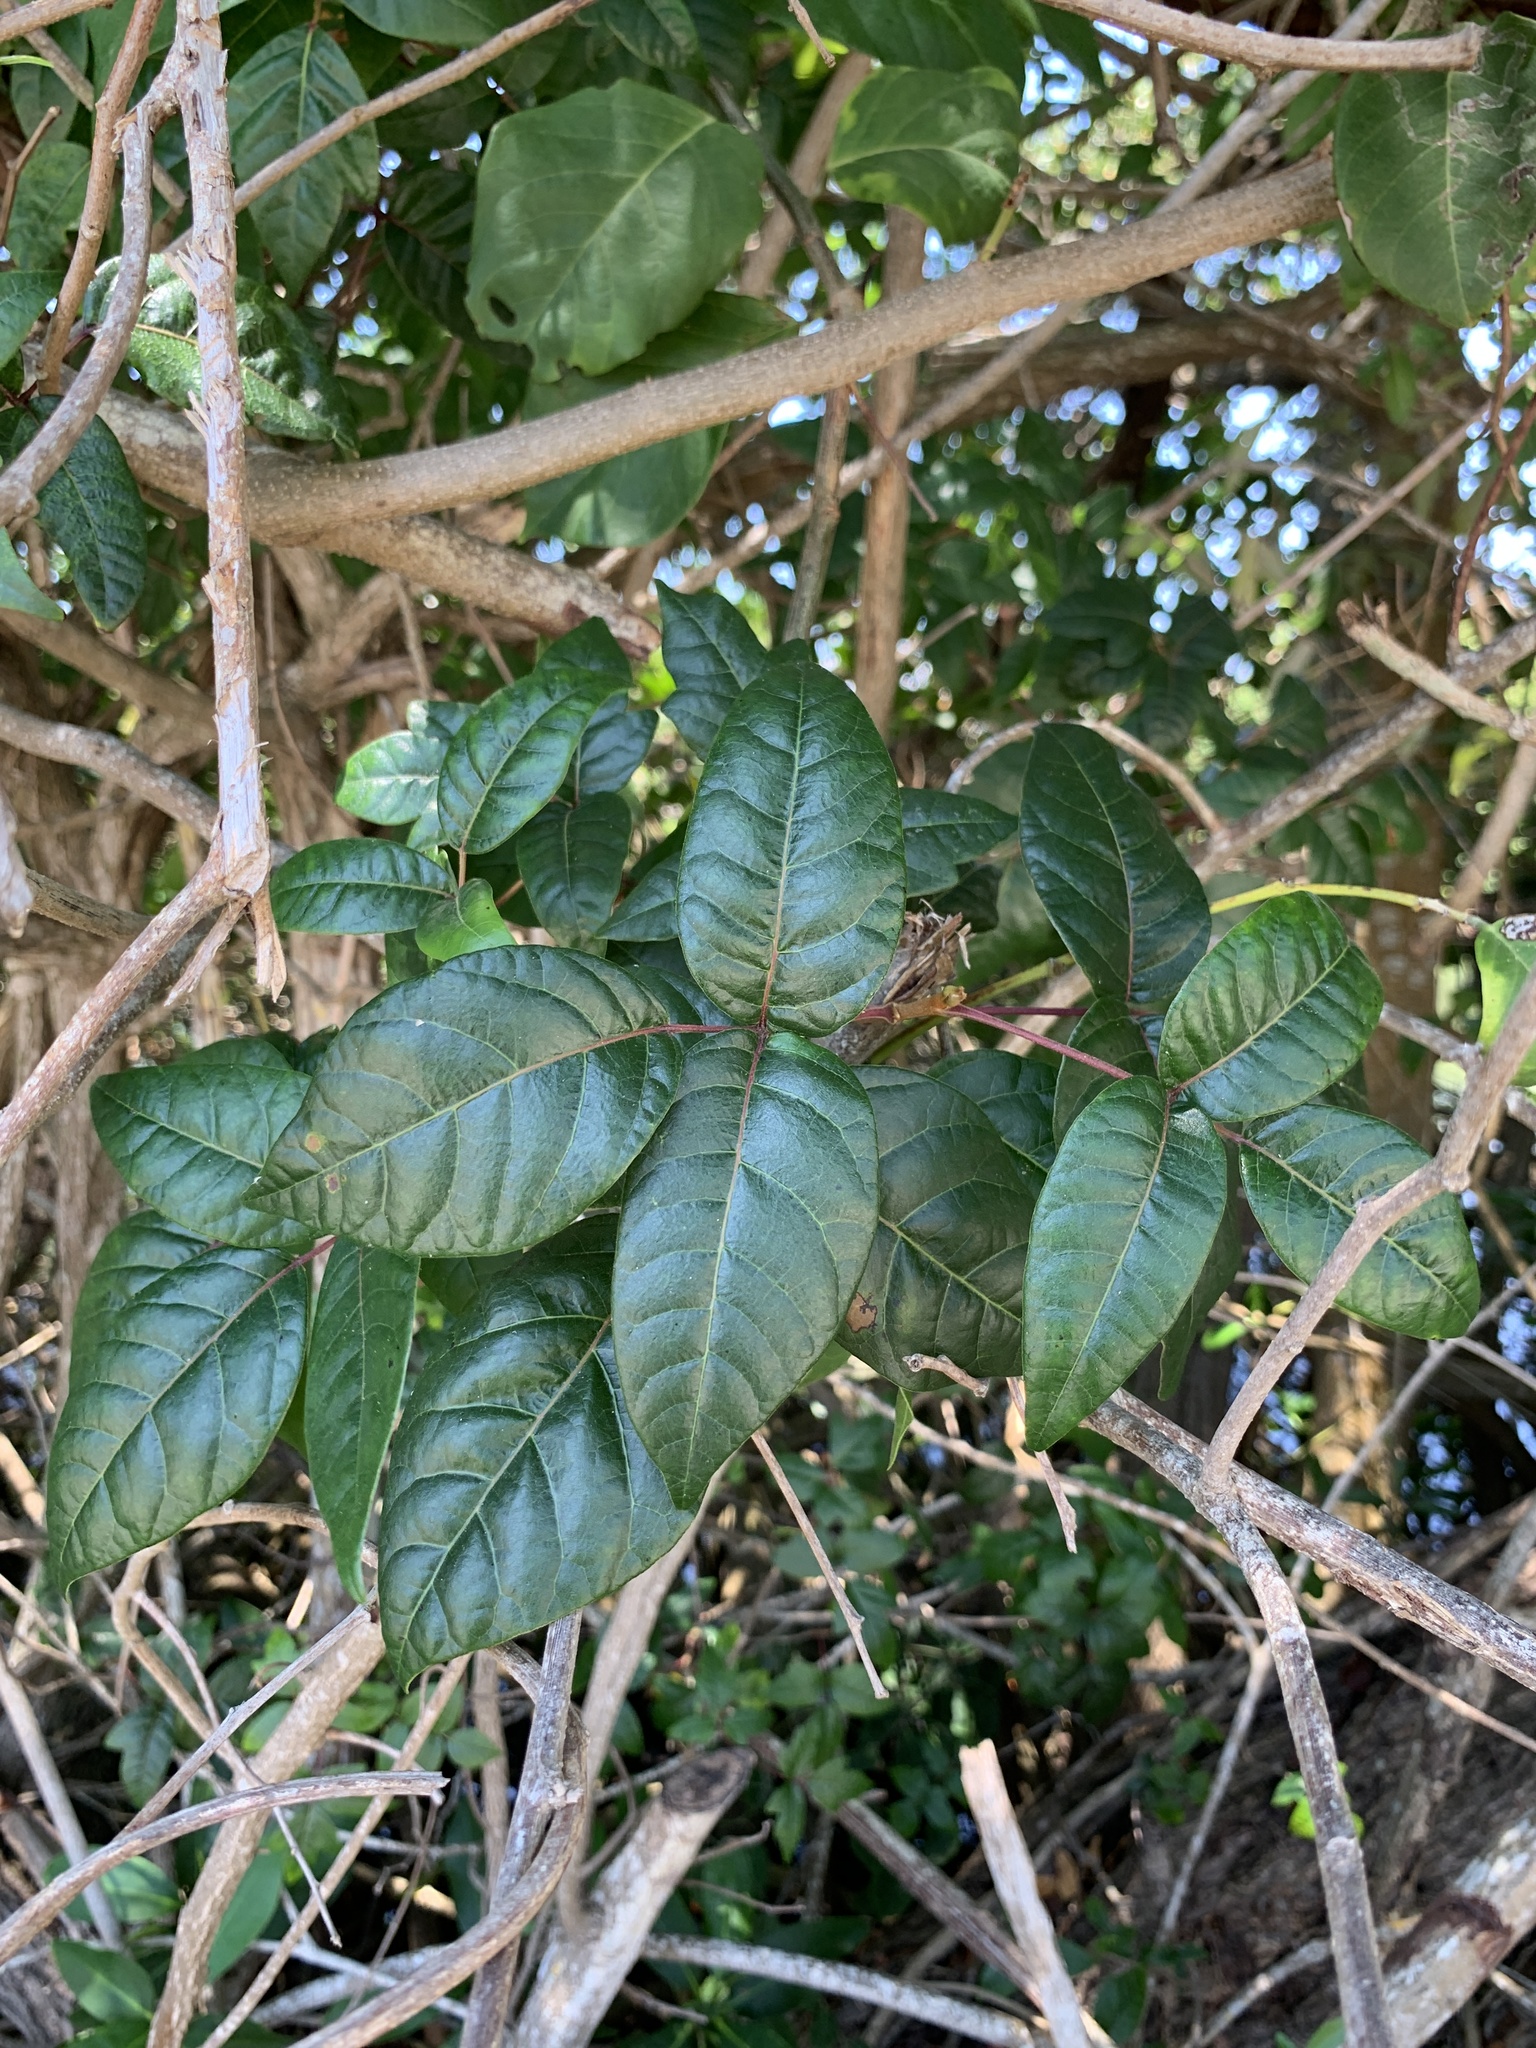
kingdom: Plantae
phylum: Tracheophyta
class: Magnoliopsida
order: Sapindales
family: Anacardiaceae
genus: Toxicodendron
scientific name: Toxicodendron radicans
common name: Poison ivy
